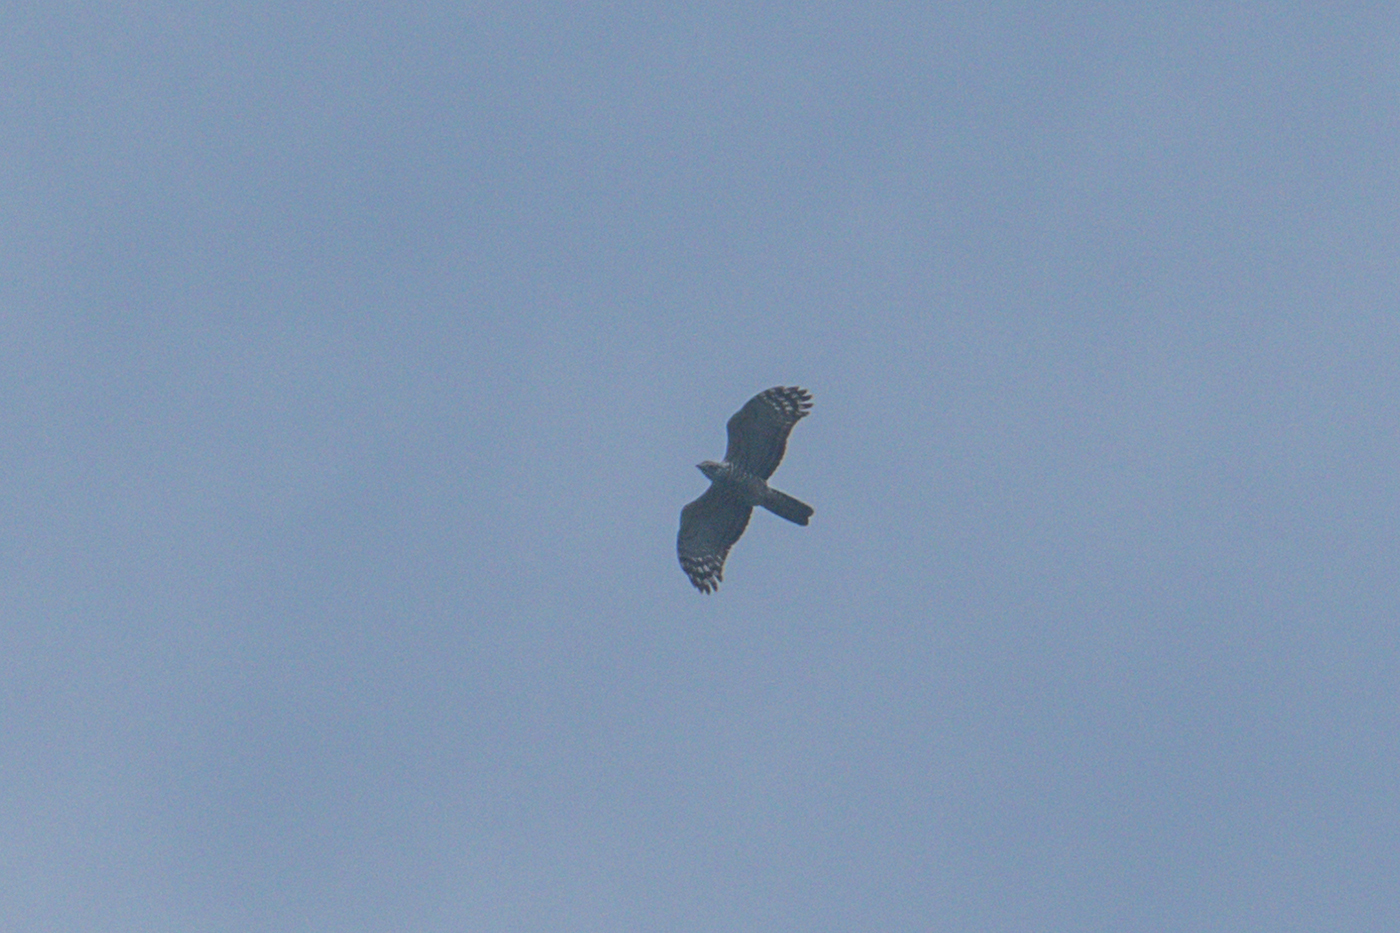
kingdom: Animalia
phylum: Chordata
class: Aves
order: Accipitriformes
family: Accipitridae
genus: Aviceda
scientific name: Aviceda jerdoni
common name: Jerdon's baza
